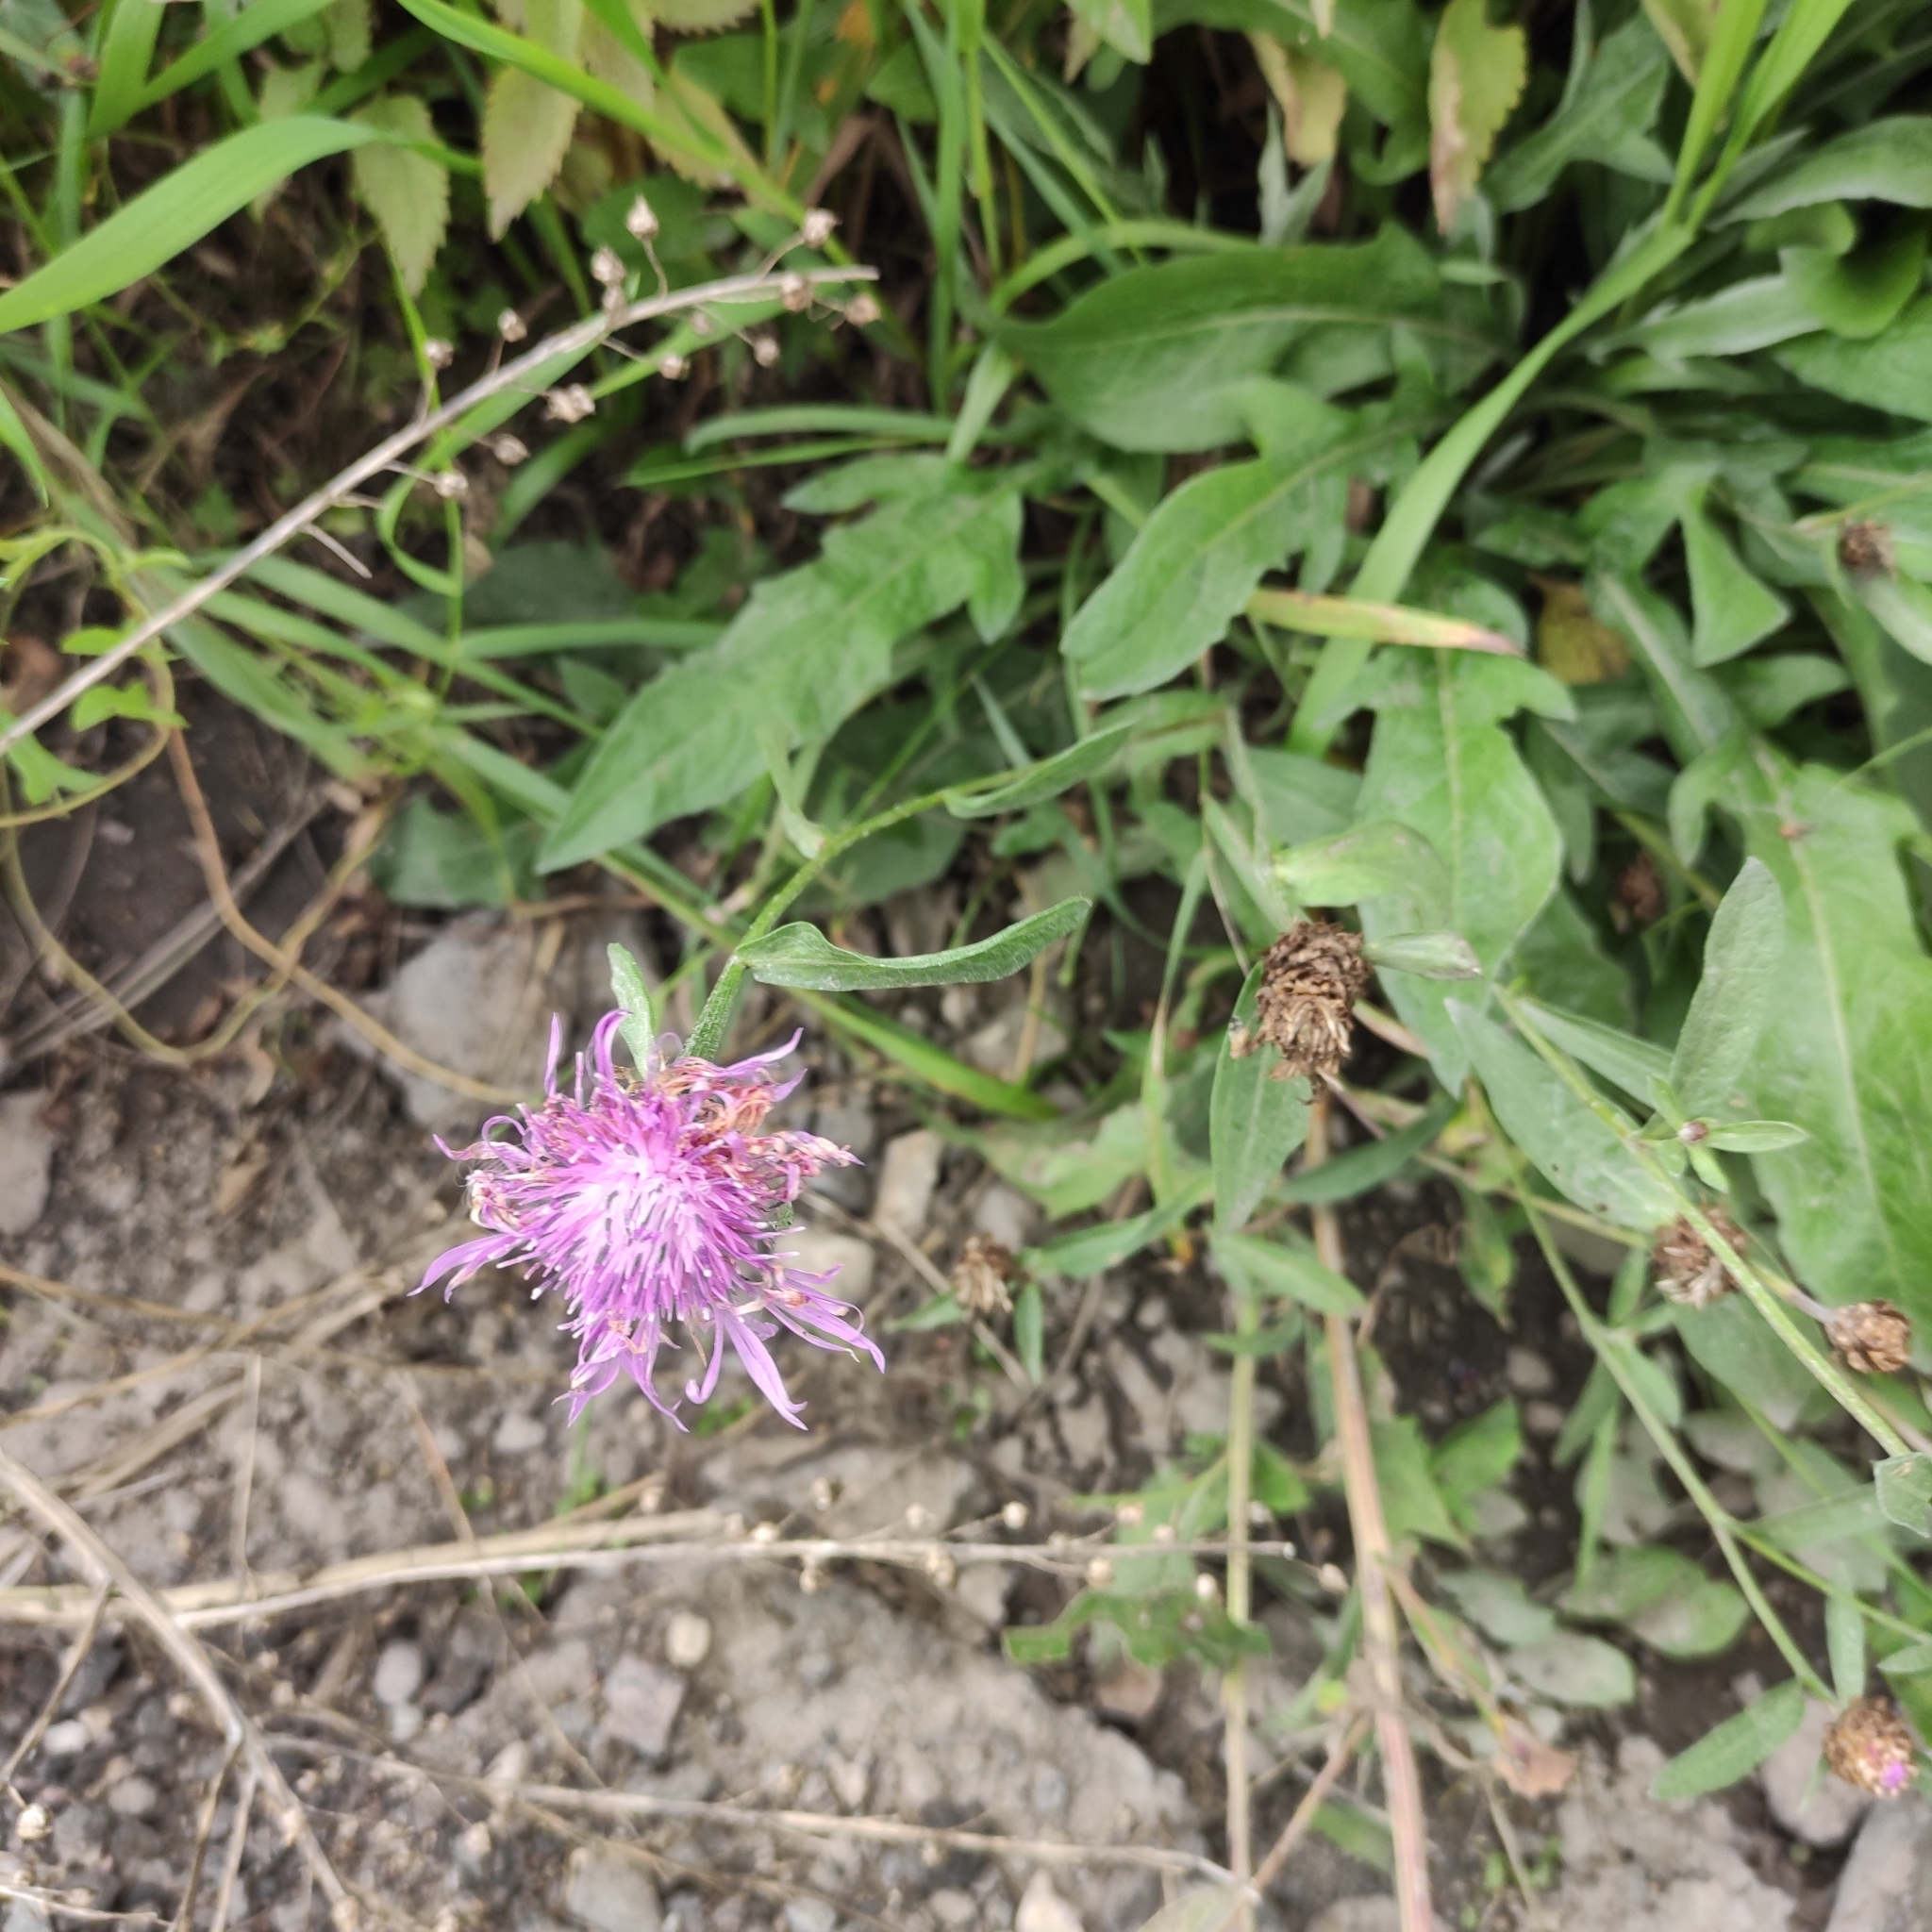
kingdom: Plantae
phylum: Tracheophyta
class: Magnoliopsida
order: Asterales
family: Asteraceae
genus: Centaurea
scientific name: Centaurea jacea
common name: Brown knapweed
